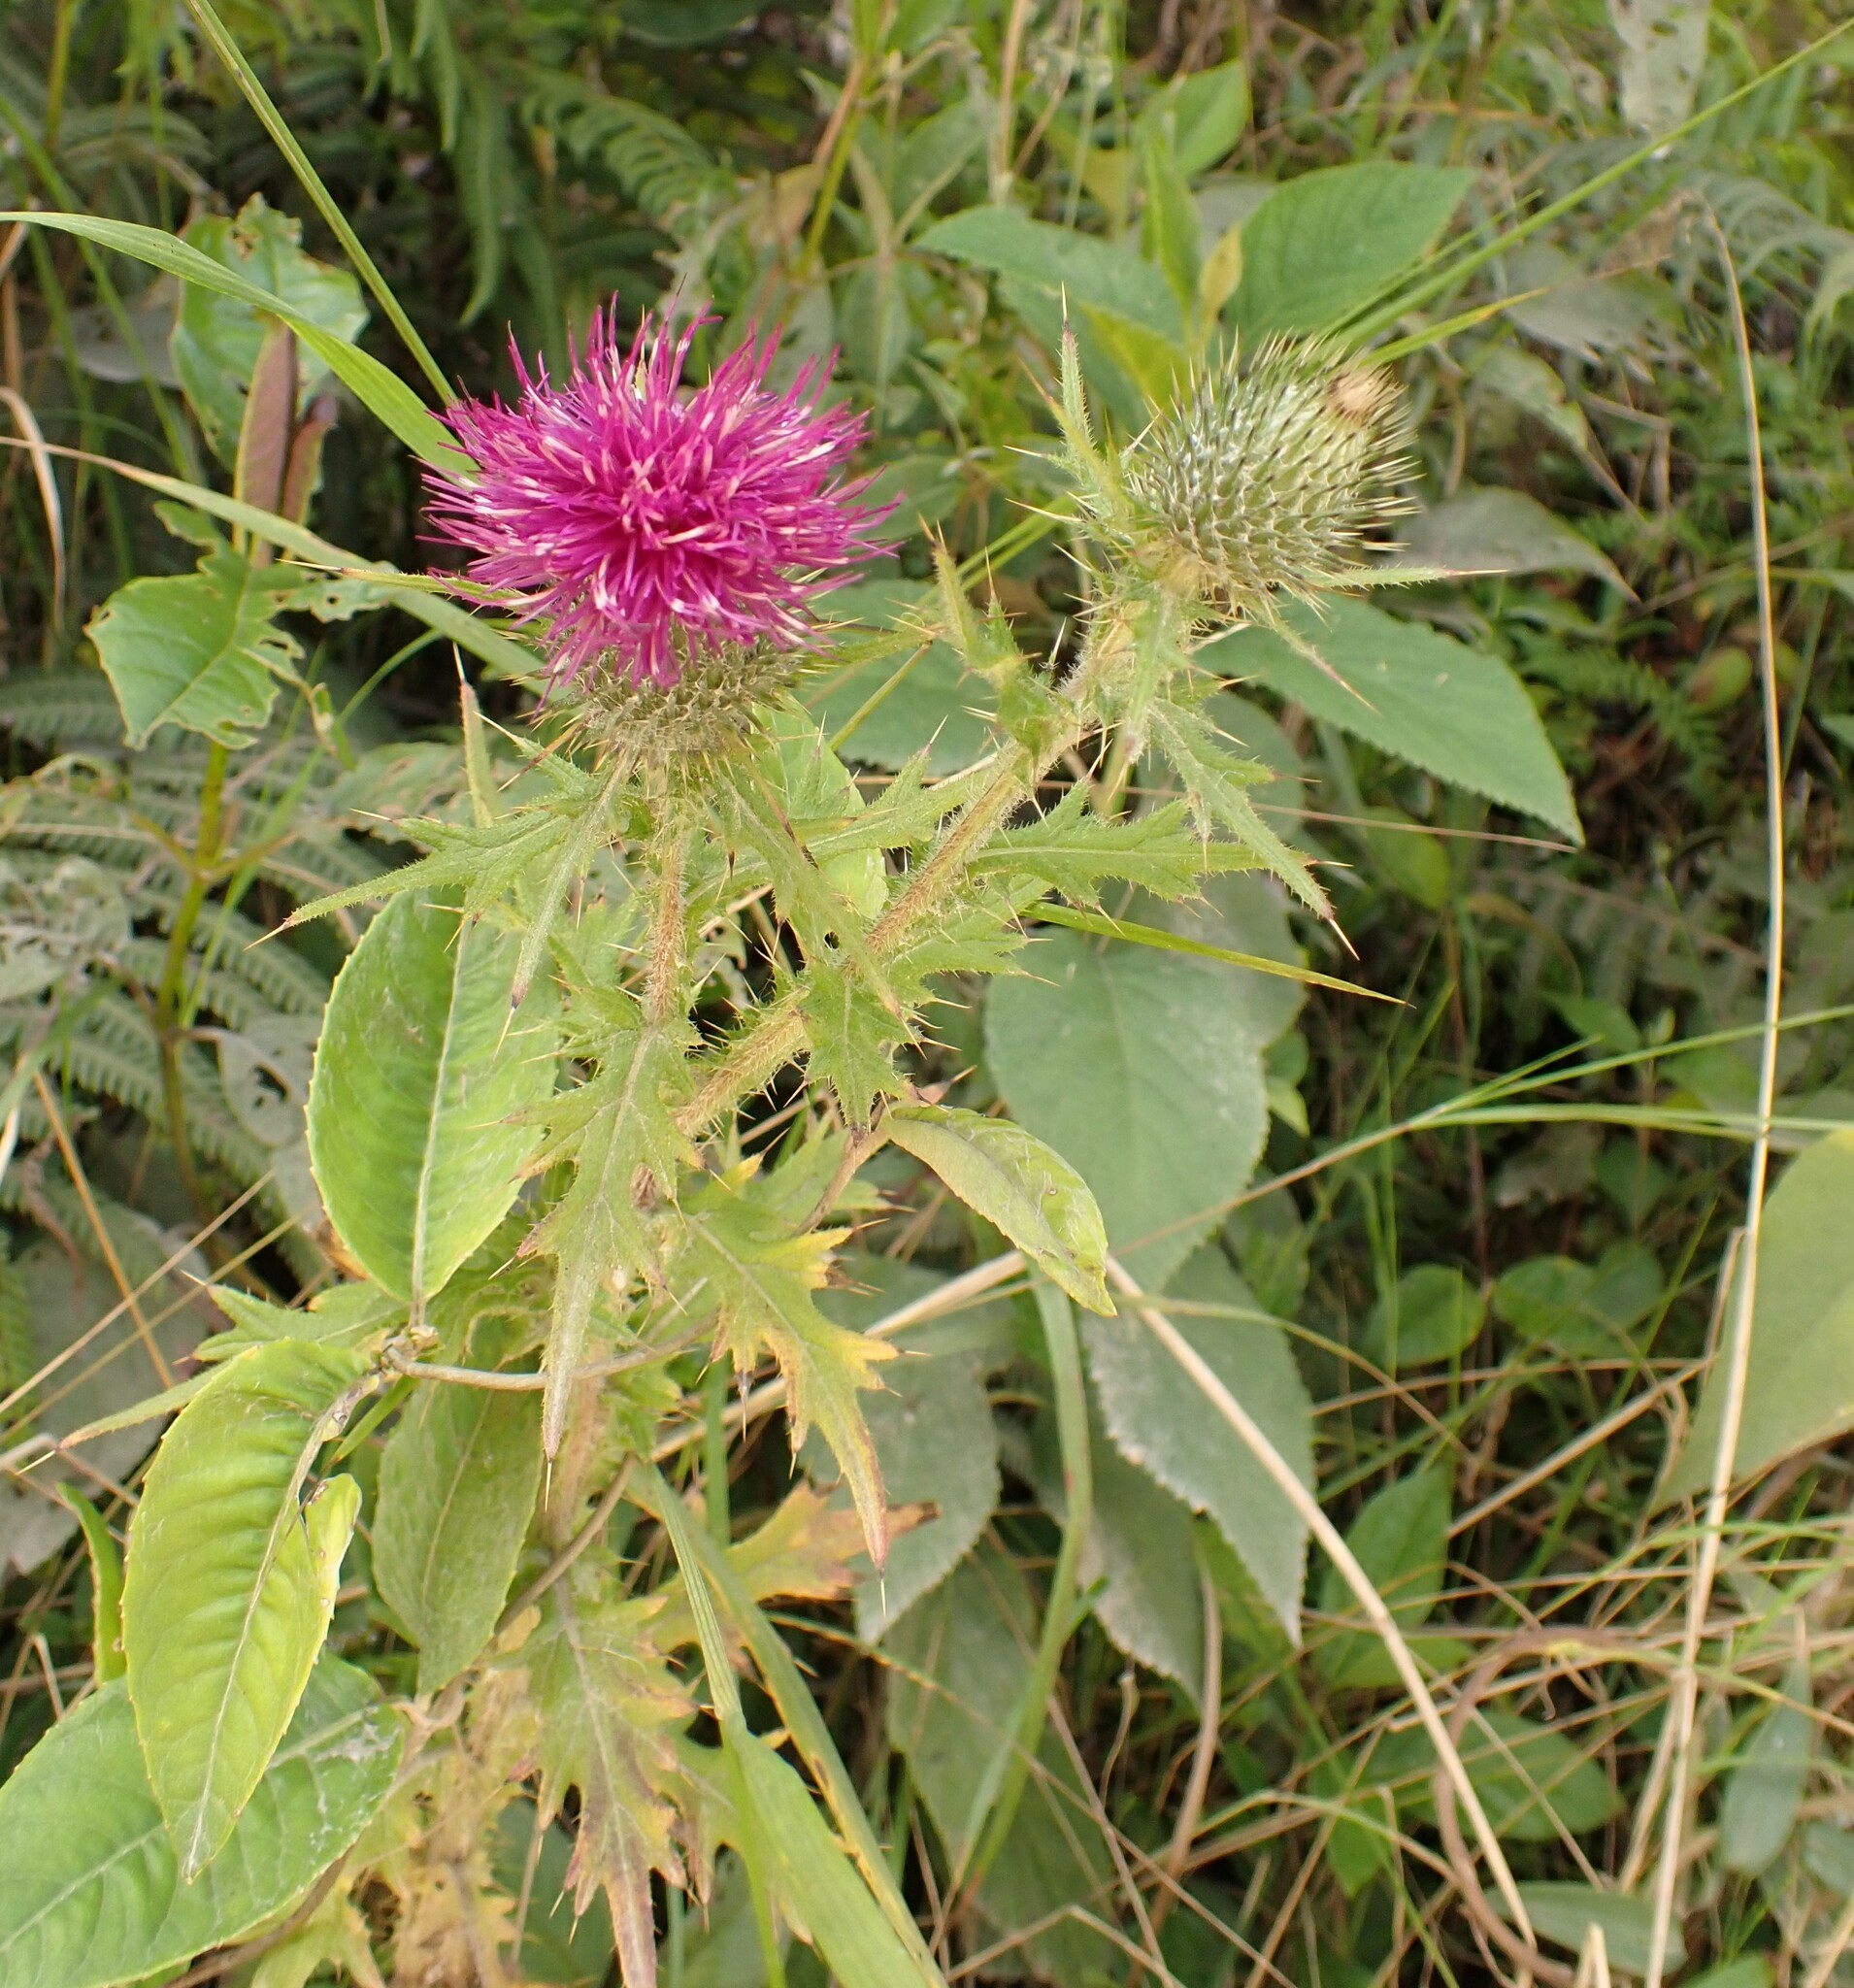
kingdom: Plantae
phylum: Tracheophyta
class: Magnoliopsida
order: Asterales
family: Asteraceae
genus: Cirsium
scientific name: Cirsium vulgare
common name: Bull thistle
